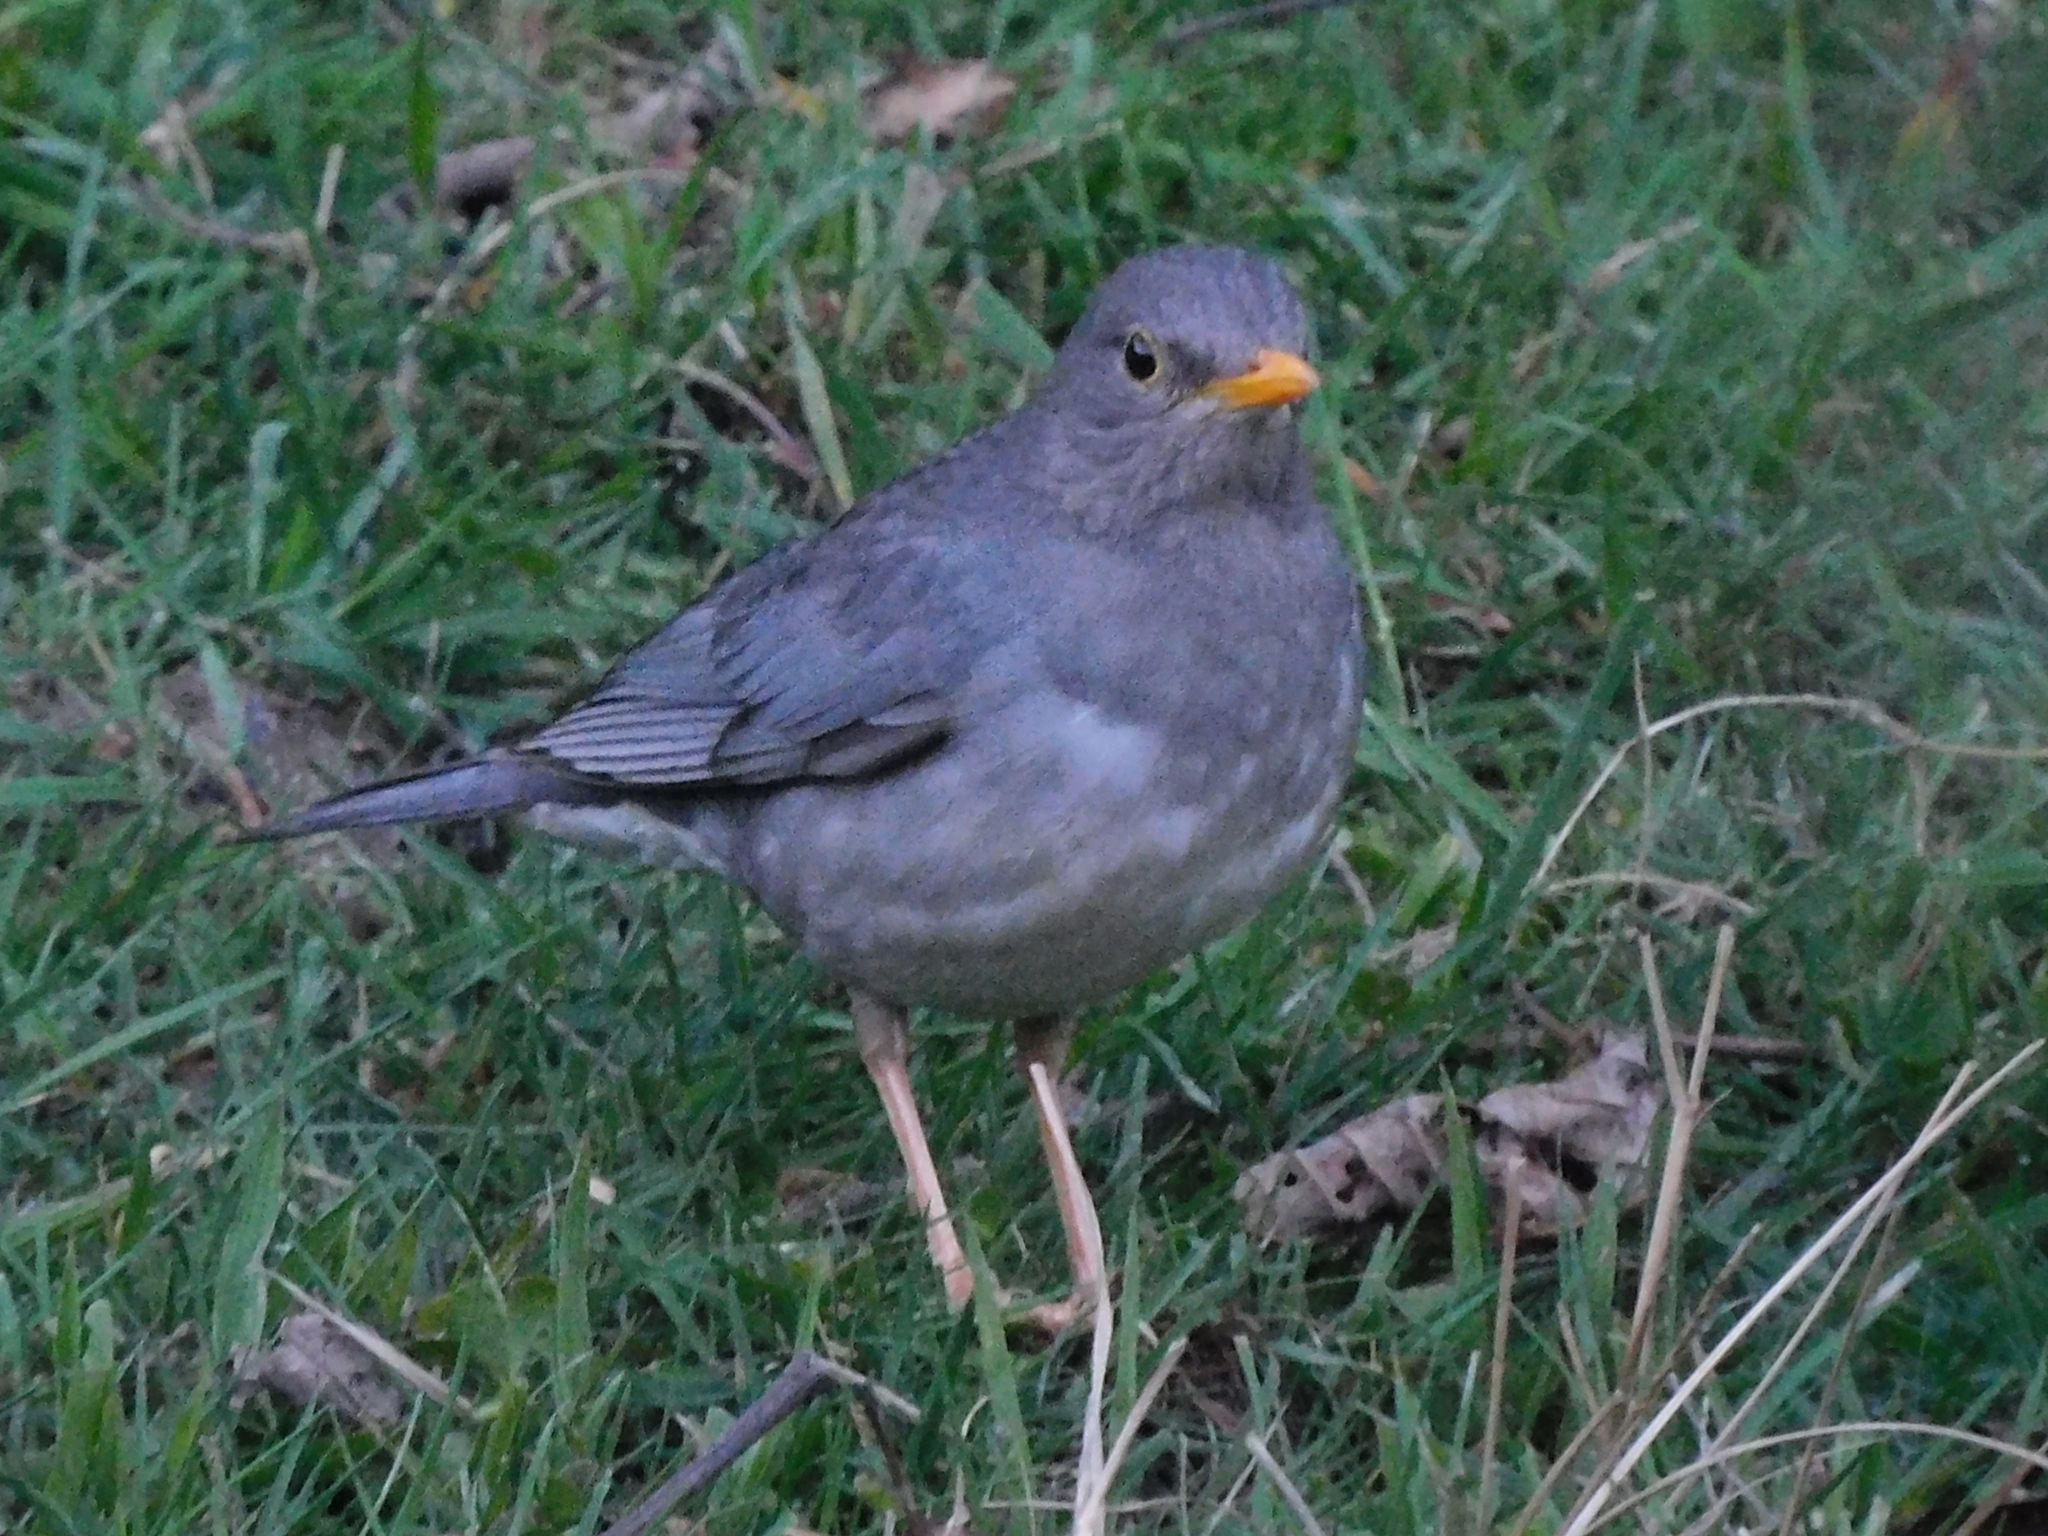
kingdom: Animalia
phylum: Chordata
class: Aves
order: Passeriformes
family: Turdidae
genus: Turdus
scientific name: Turdus unicolor
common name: Tickell's thrush
